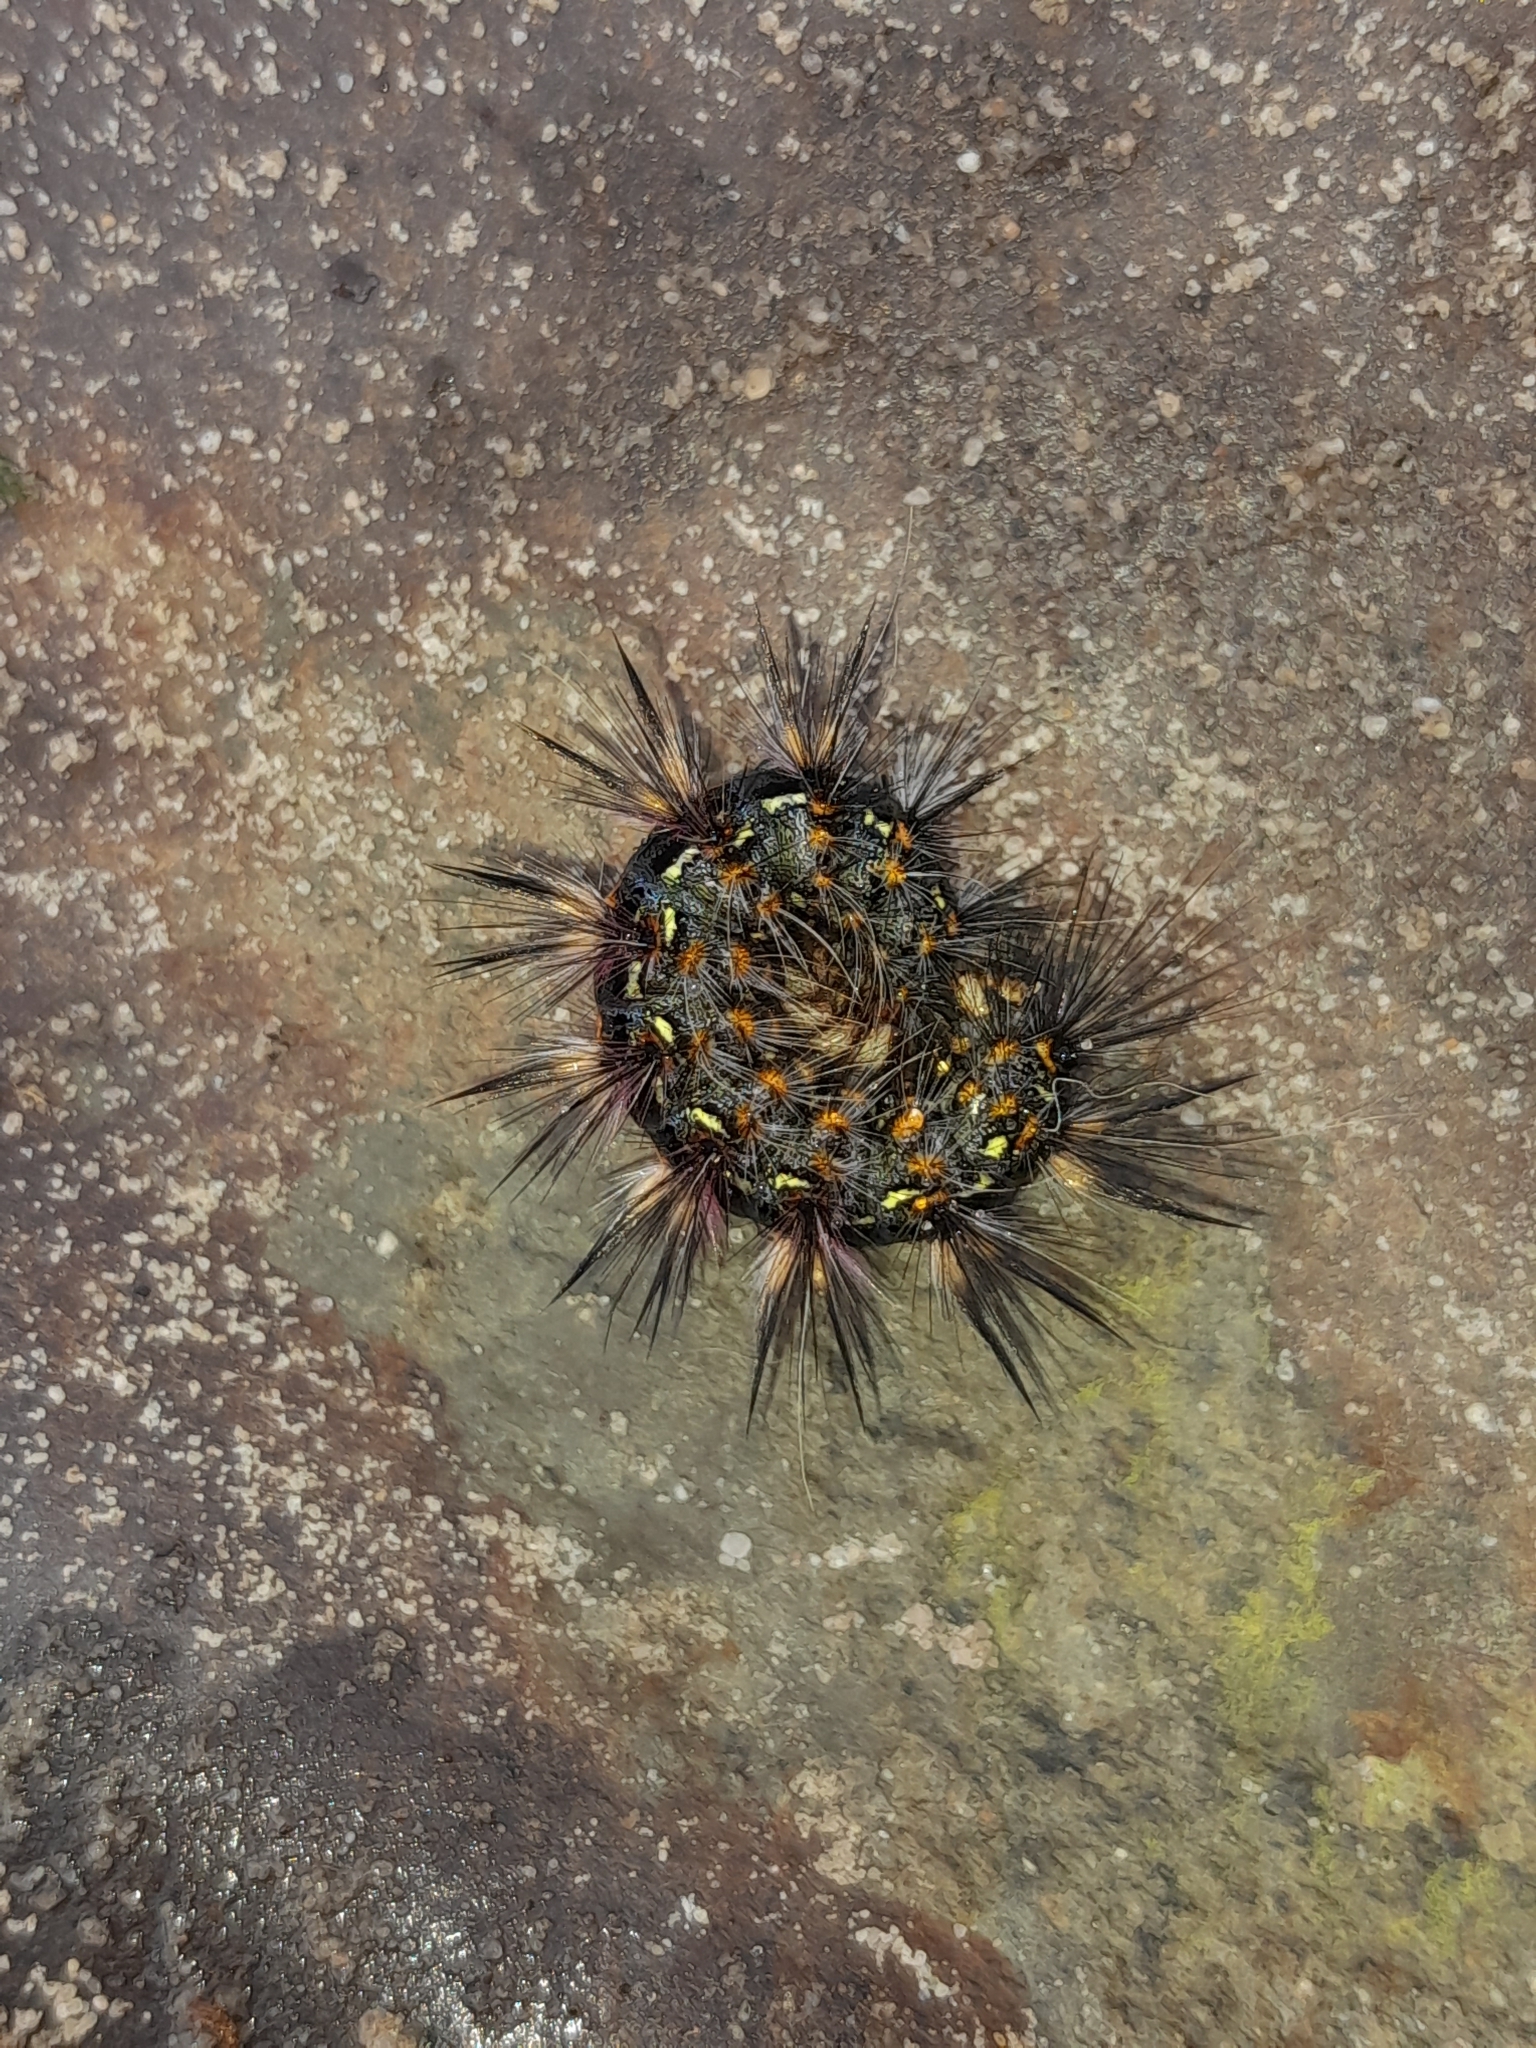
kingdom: Animalia
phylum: Arthropoda
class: Insecta
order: Lepidoptera
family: Erebidae
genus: Paralacydes
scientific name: Paralacydes vocula
